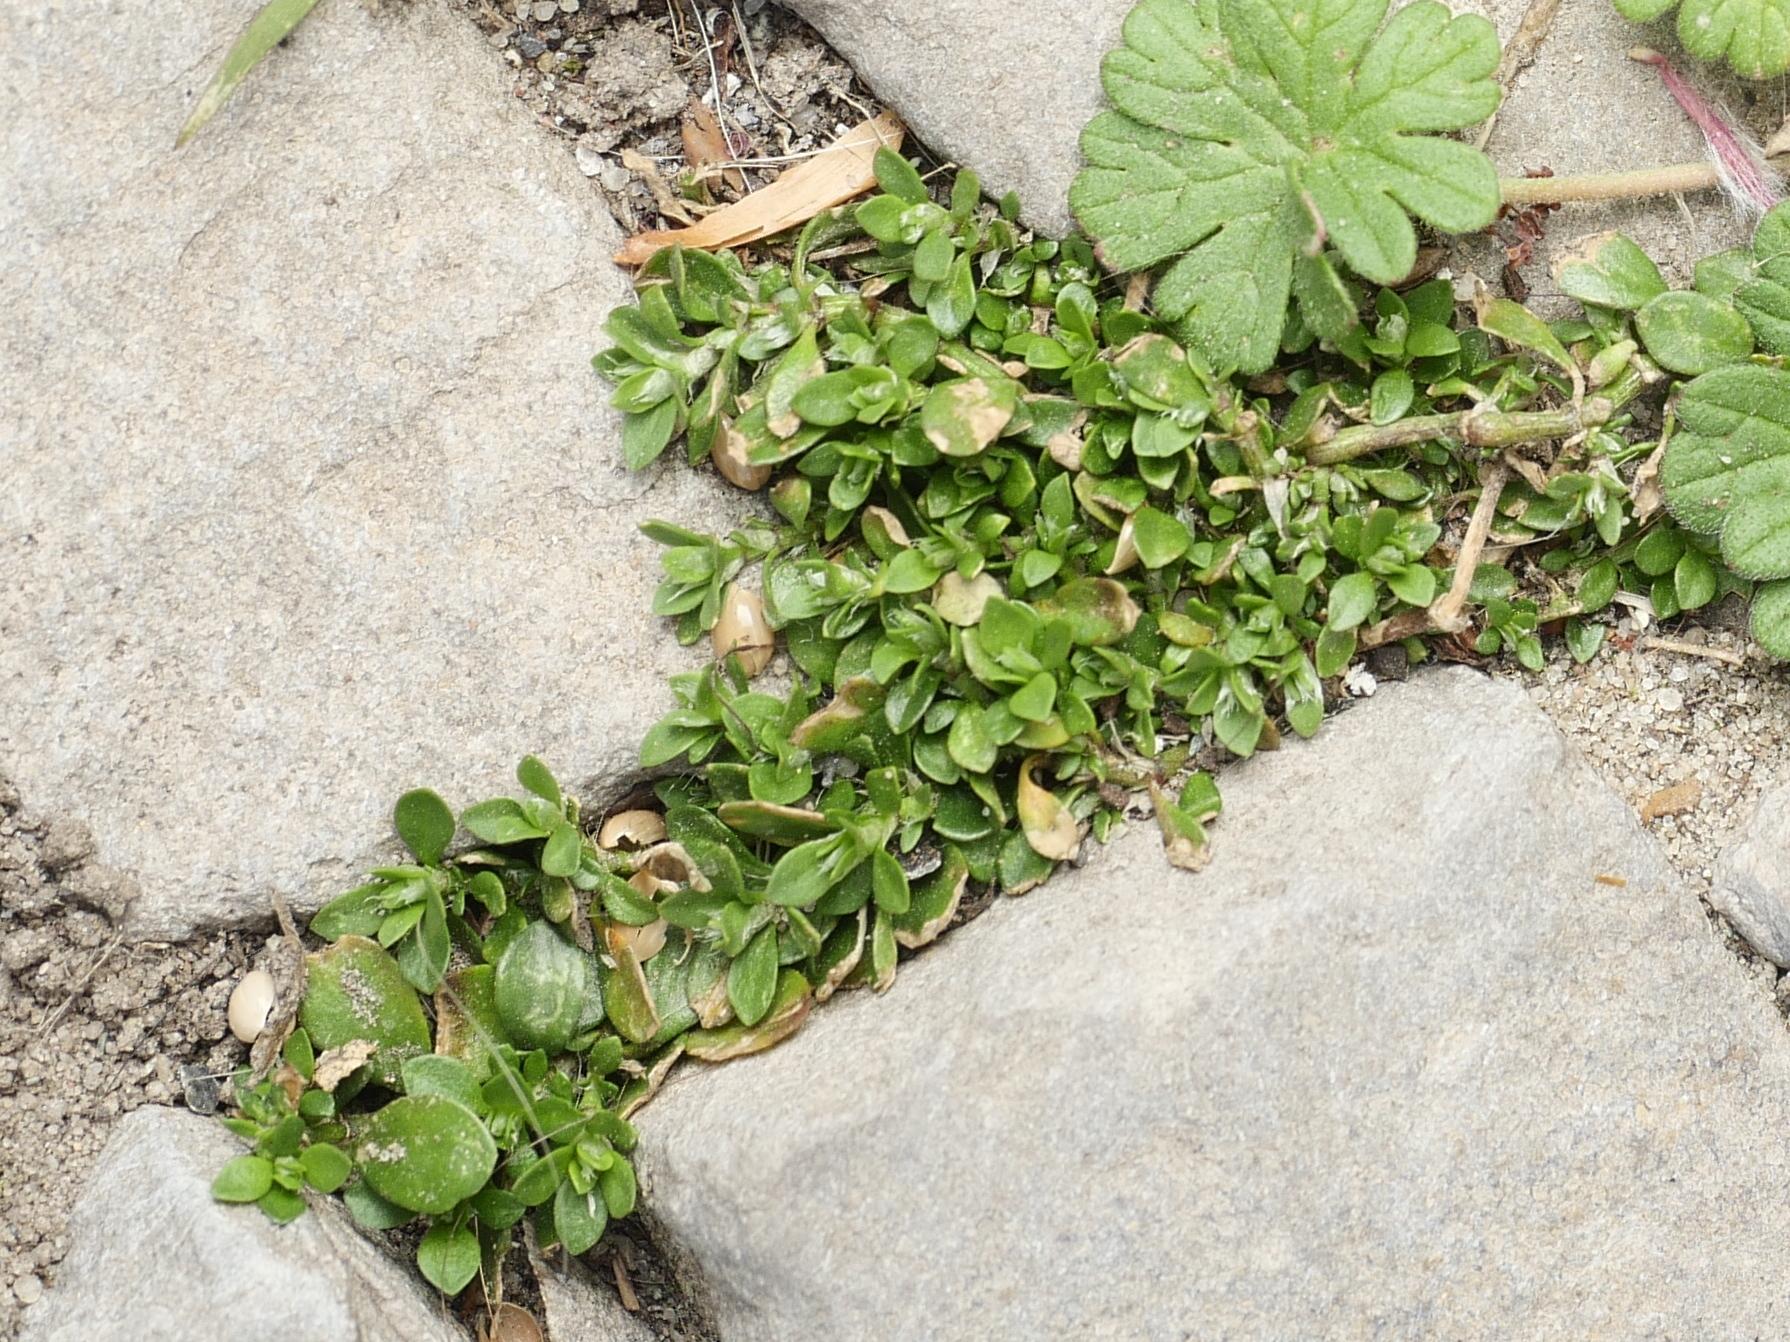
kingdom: Plantae
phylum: Tracheophyta
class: Magnoliopsida
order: Caryophyllales
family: Caryophyllaceae
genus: Polycarpon
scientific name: Polycarpon tetraphyllum
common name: Four-leaved all-seed
